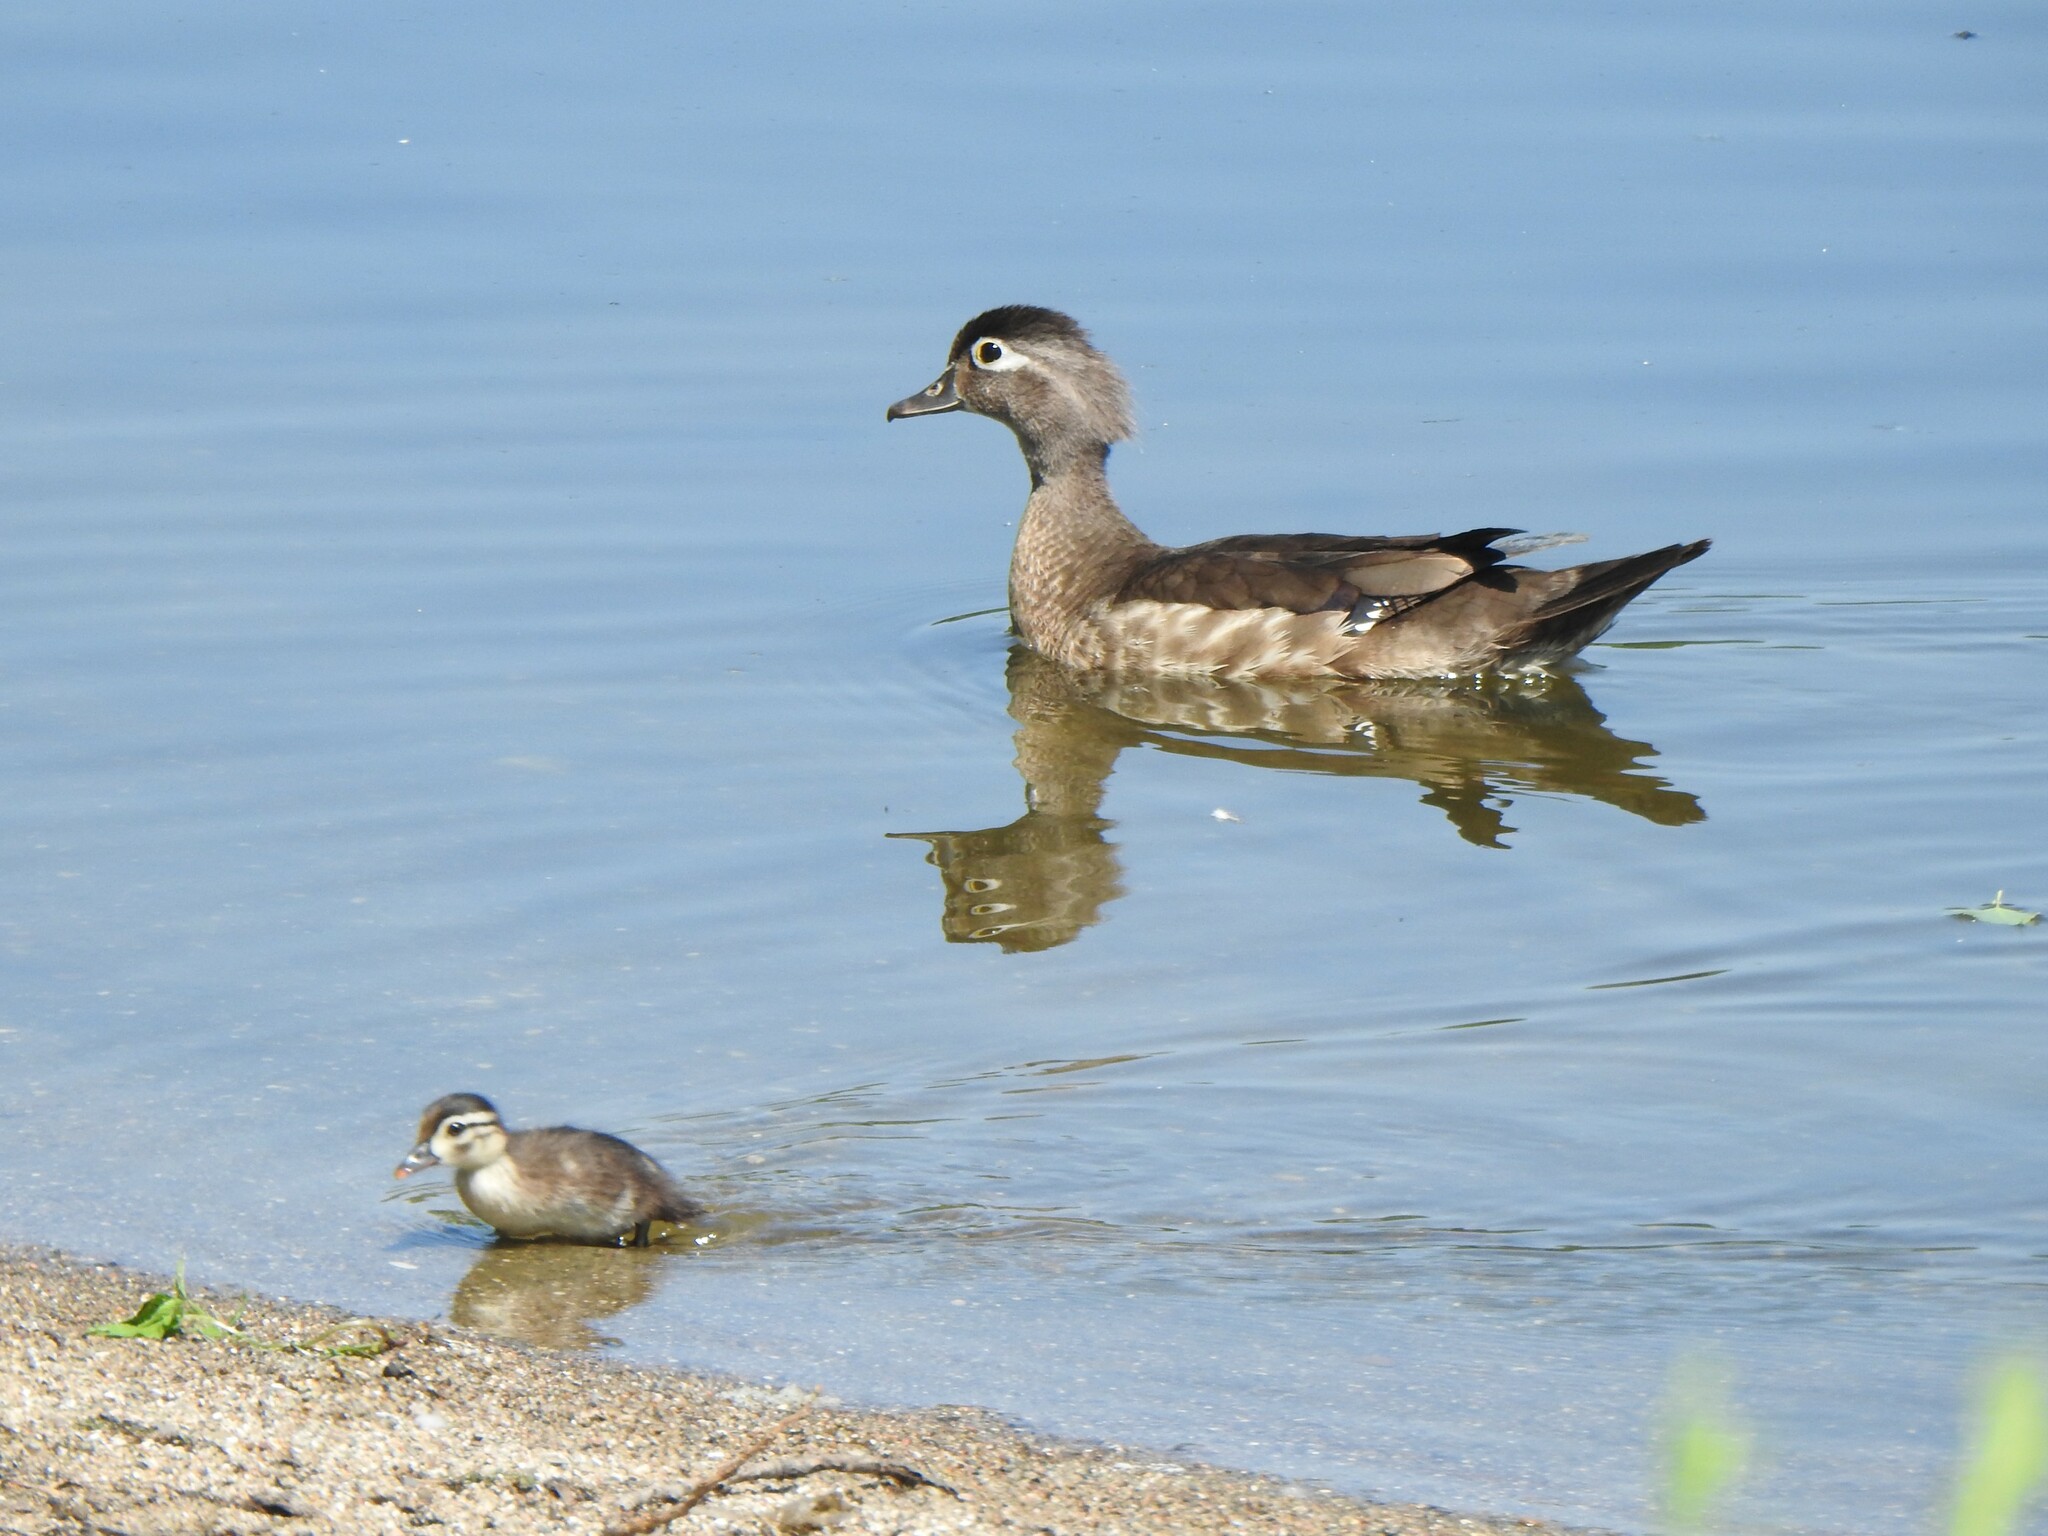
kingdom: Animalia
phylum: Chordata
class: Aves
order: Anseriformes
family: Anatidae
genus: Aix
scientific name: Aix sponsa
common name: Wood duck
